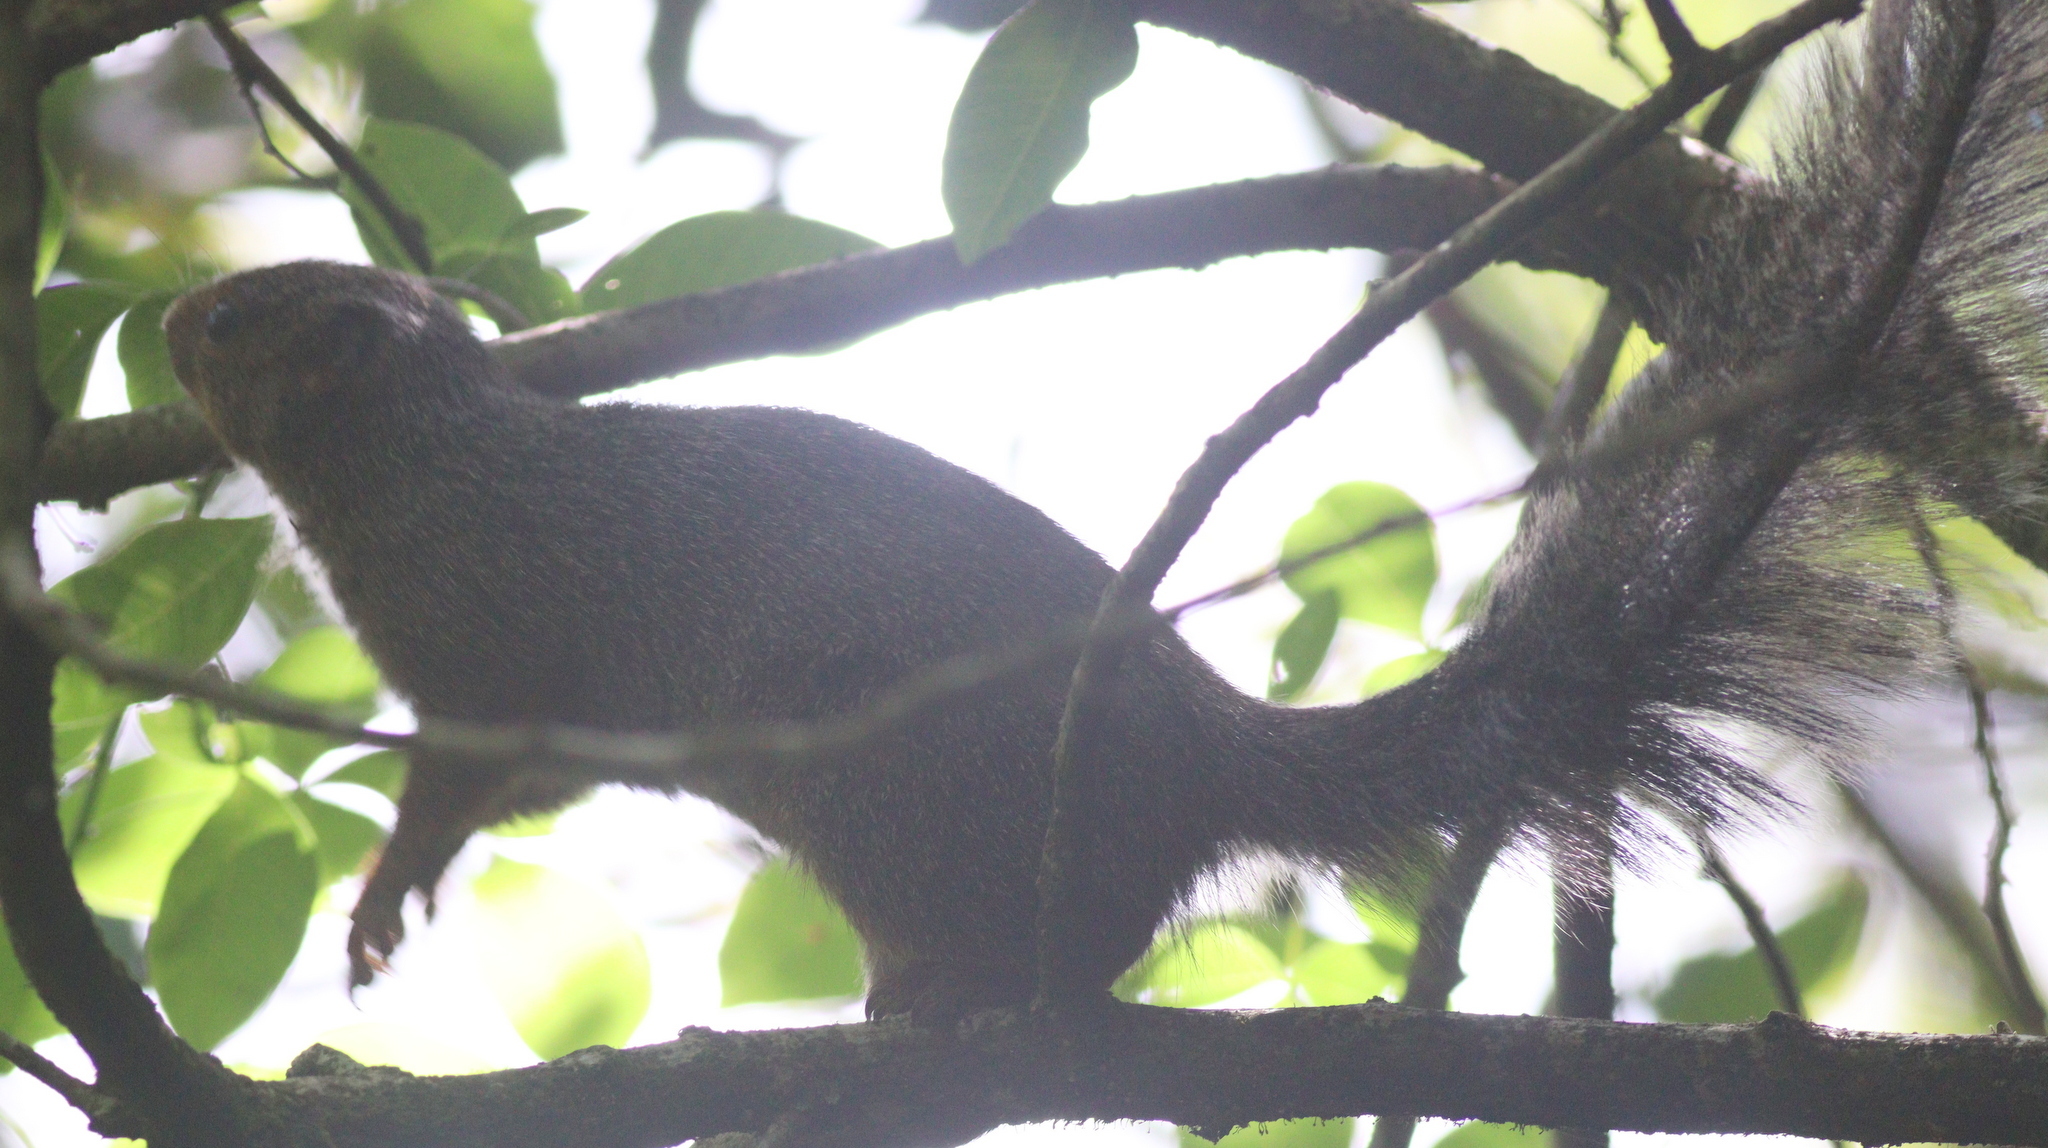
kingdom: Animalia
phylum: Chordata
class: Mammalia
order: Rodentia
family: Sciuridae
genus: Protoxerus
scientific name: Protoxerus stangeri
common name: Forest giant squirrel
